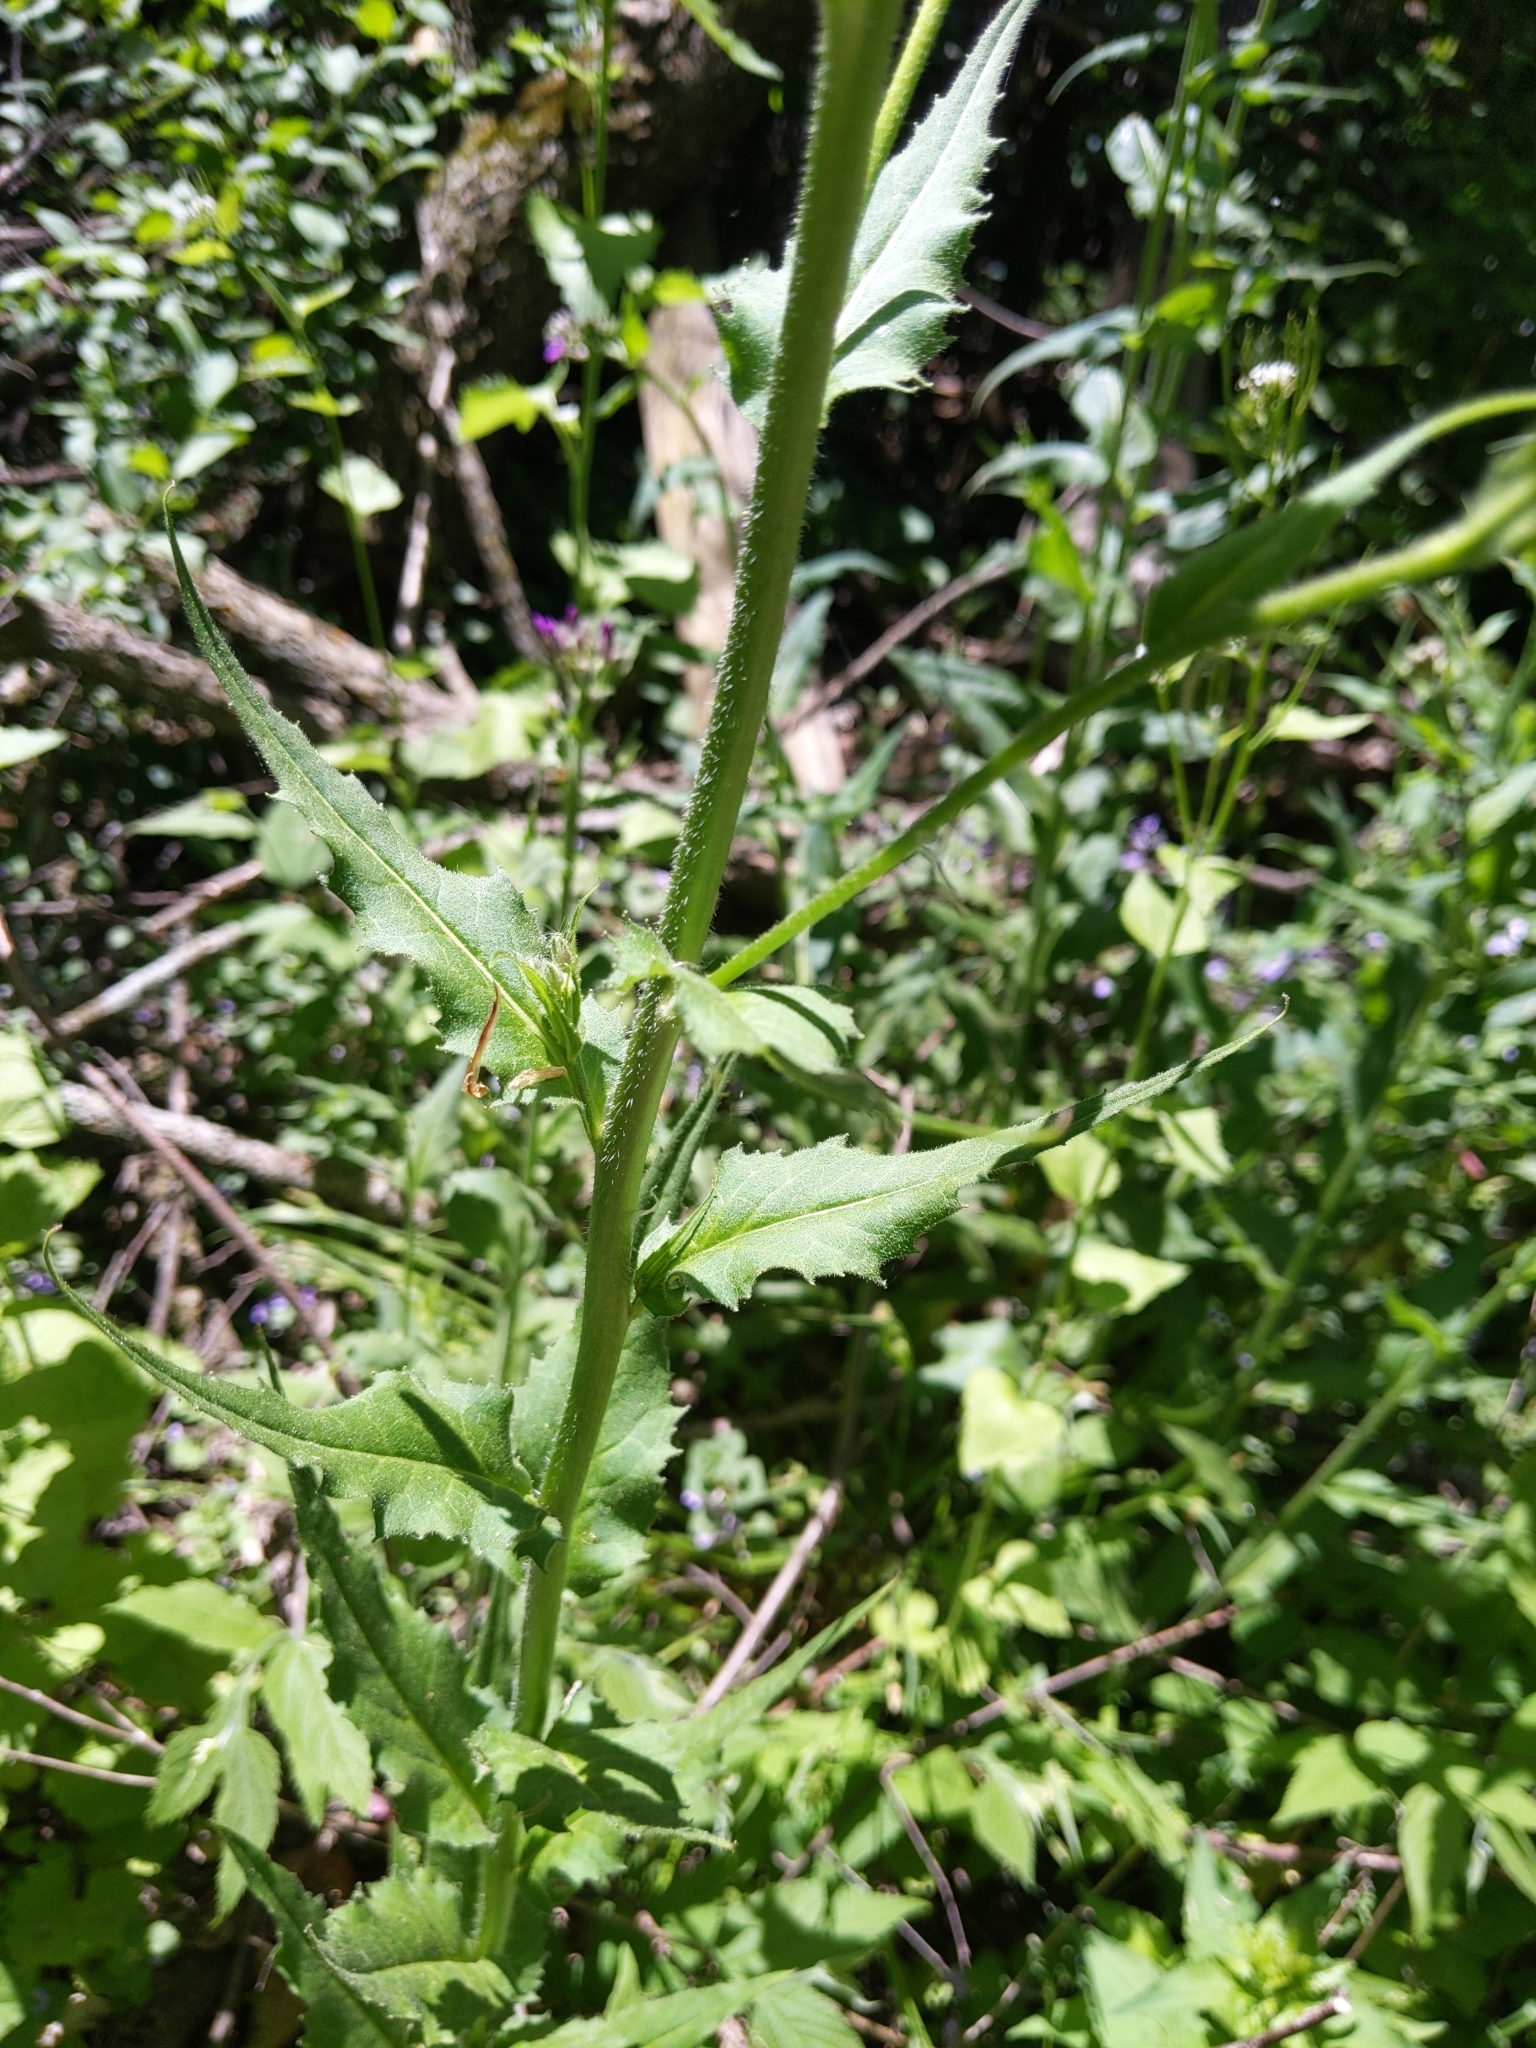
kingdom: Plantae
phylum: Tracheophyta
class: Magnoliopsida
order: Brassicales
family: Brassicaceae
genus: Hesperis
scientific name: Hesperis matronalis
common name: Dame's-violet
